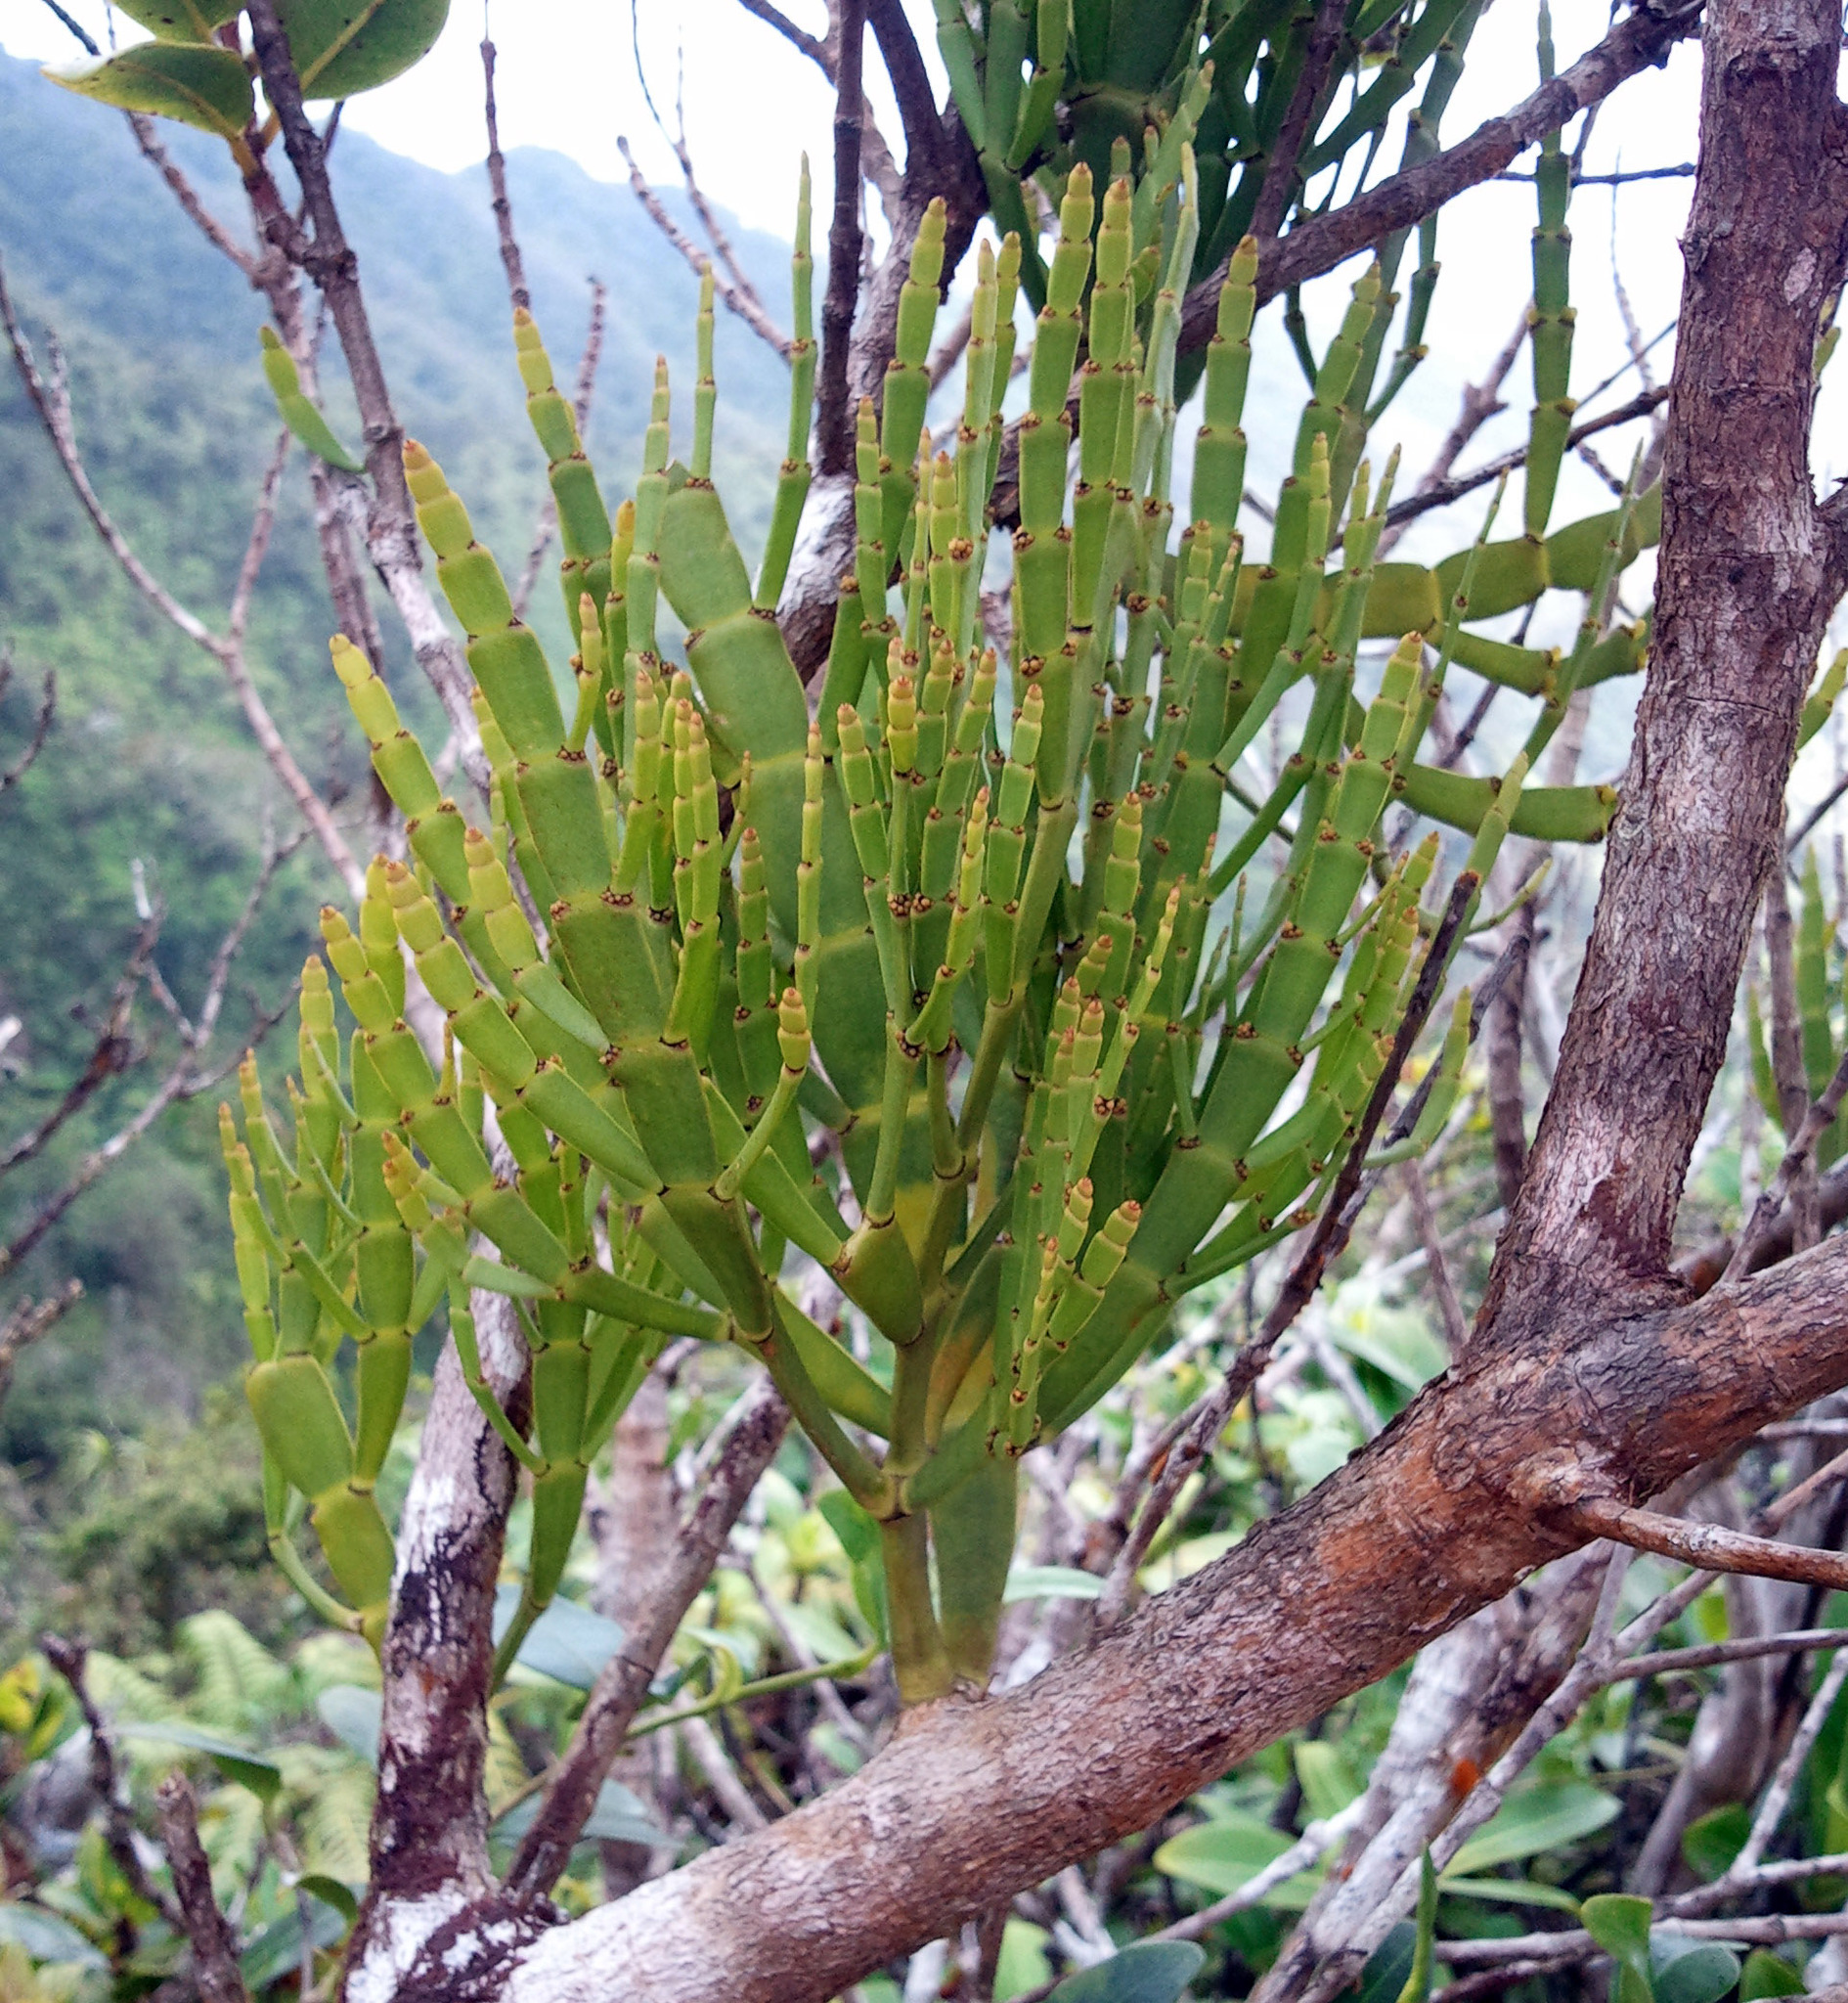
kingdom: Plantae
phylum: Tracheophyta
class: Magnoliopsida
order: Santalales
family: Viscaceae
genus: Korthalsella
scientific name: Korthalsella complanata
